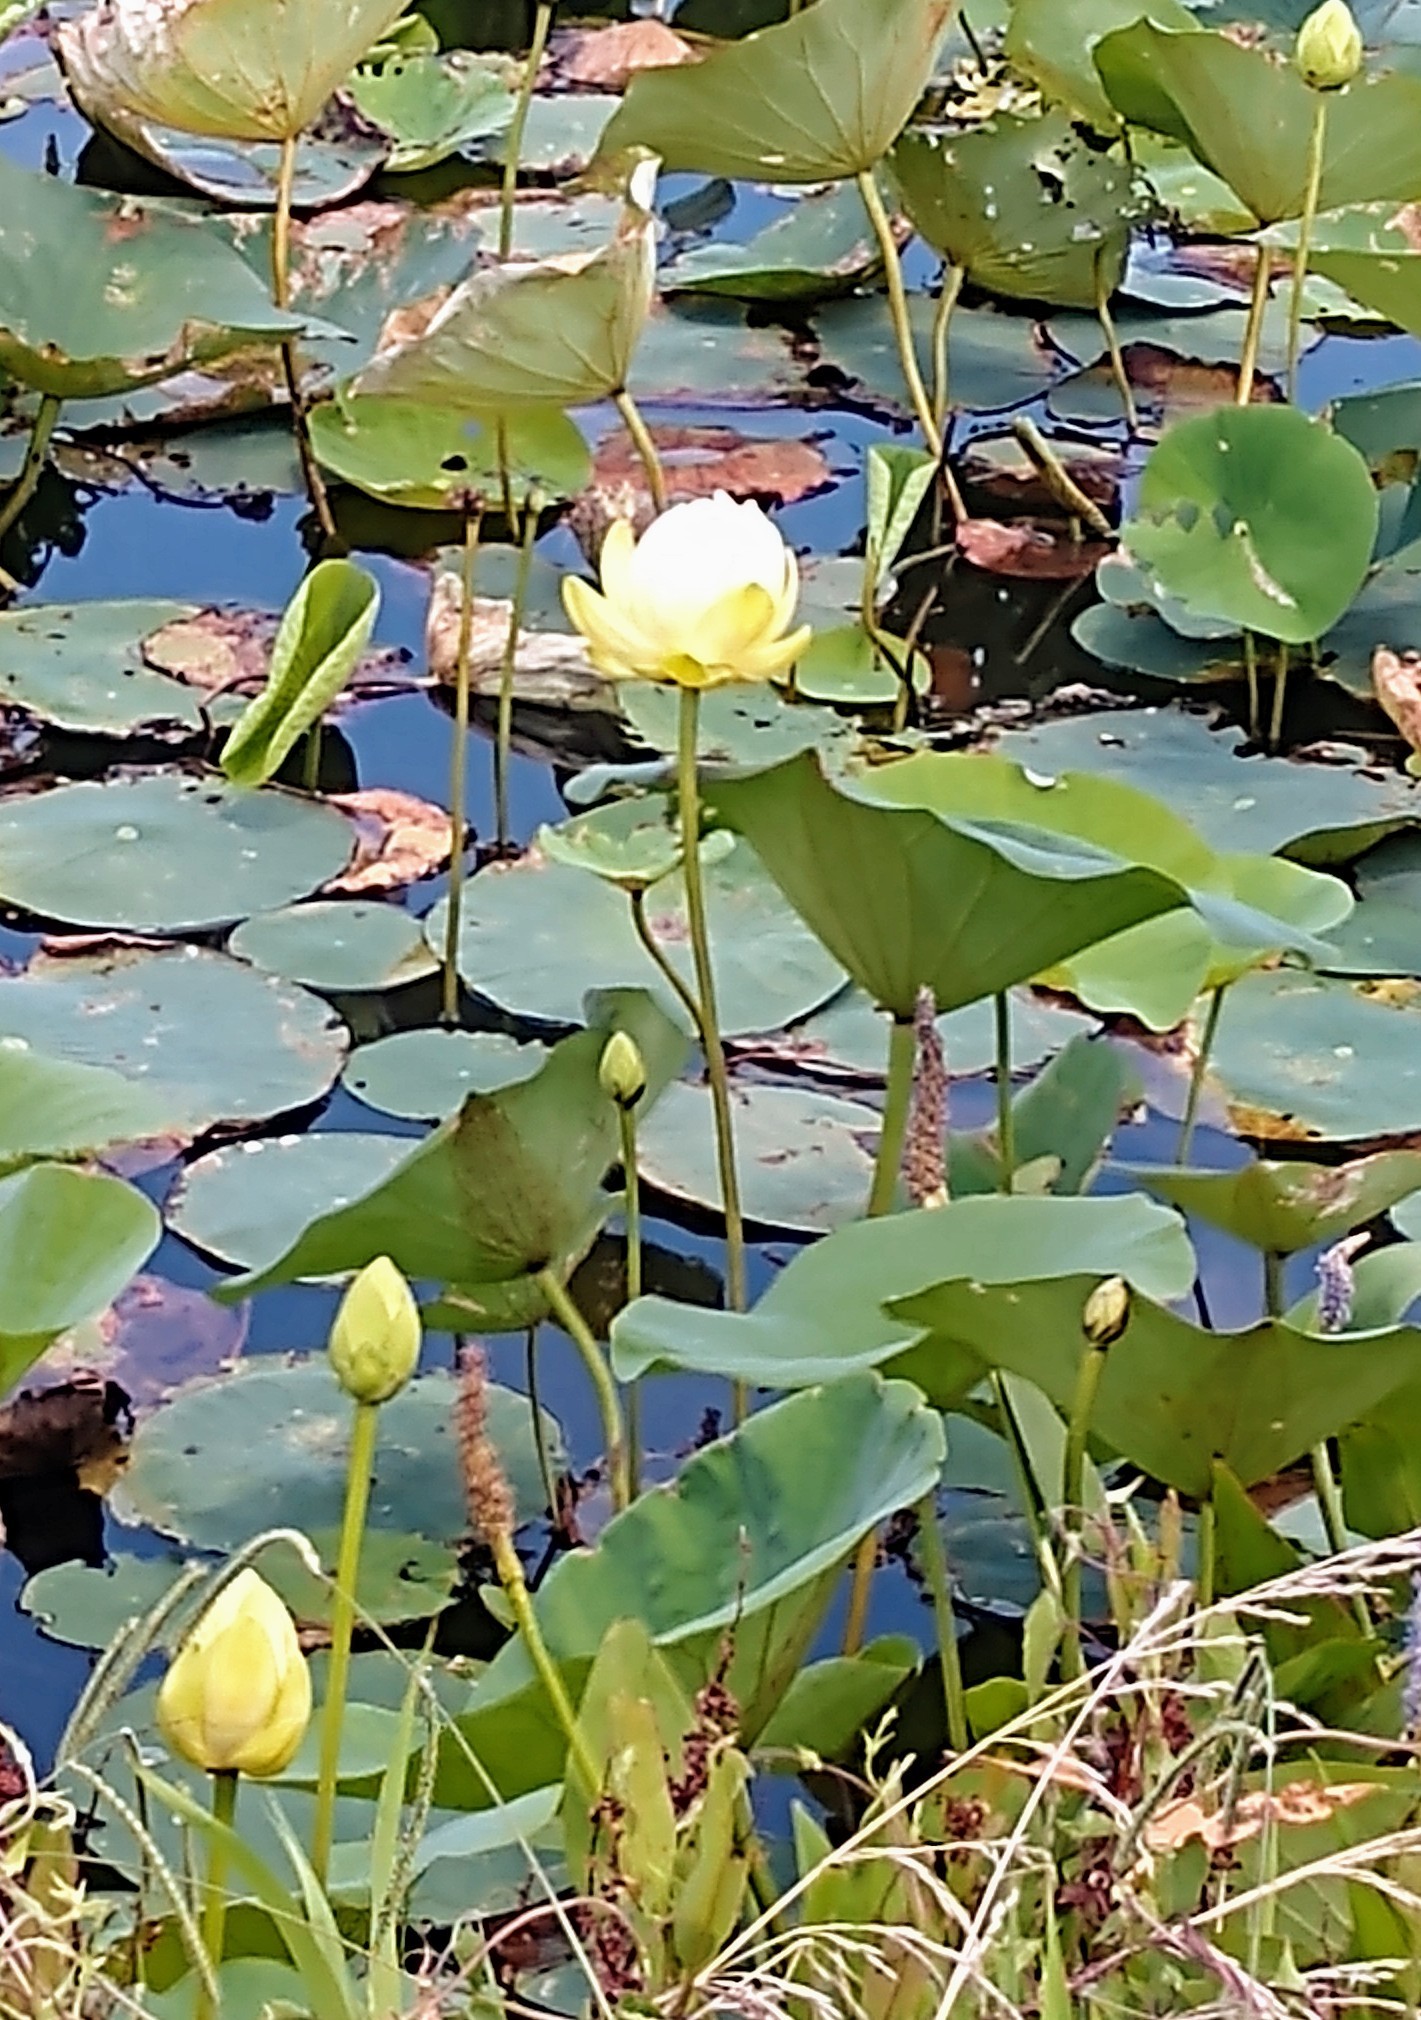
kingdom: Plantae
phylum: Tracheophyta
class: Magnoliopsida
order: Proteales
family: Nelumbonaceae
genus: Nelumbo
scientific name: Nelumbo lutea
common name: American lotus
